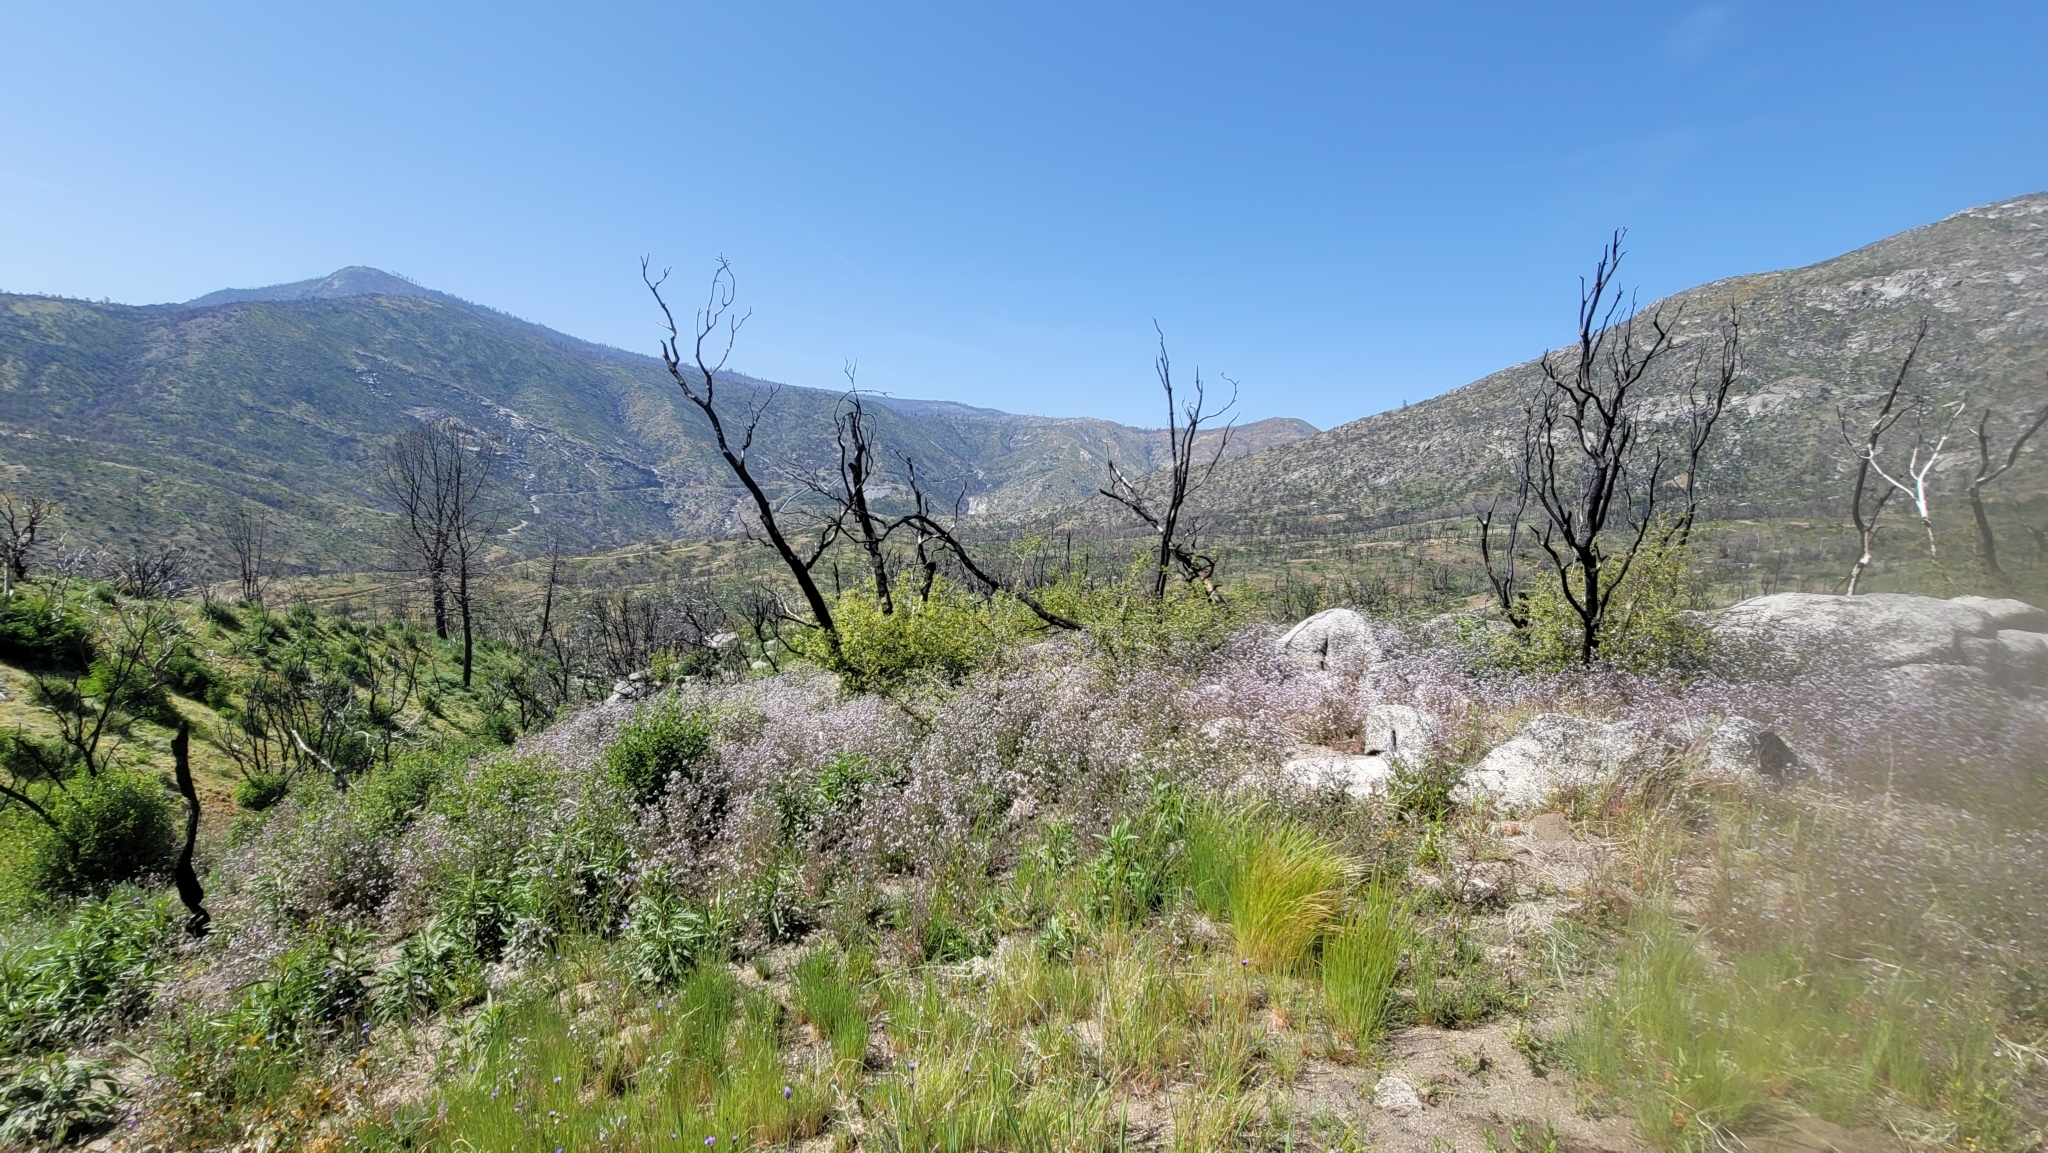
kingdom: Plantae
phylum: Tracheophyta
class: Magnoliopsida
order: Boraginales
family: Hydrophyllaceae
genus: Phacelia
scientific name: Phacelia platyloba
